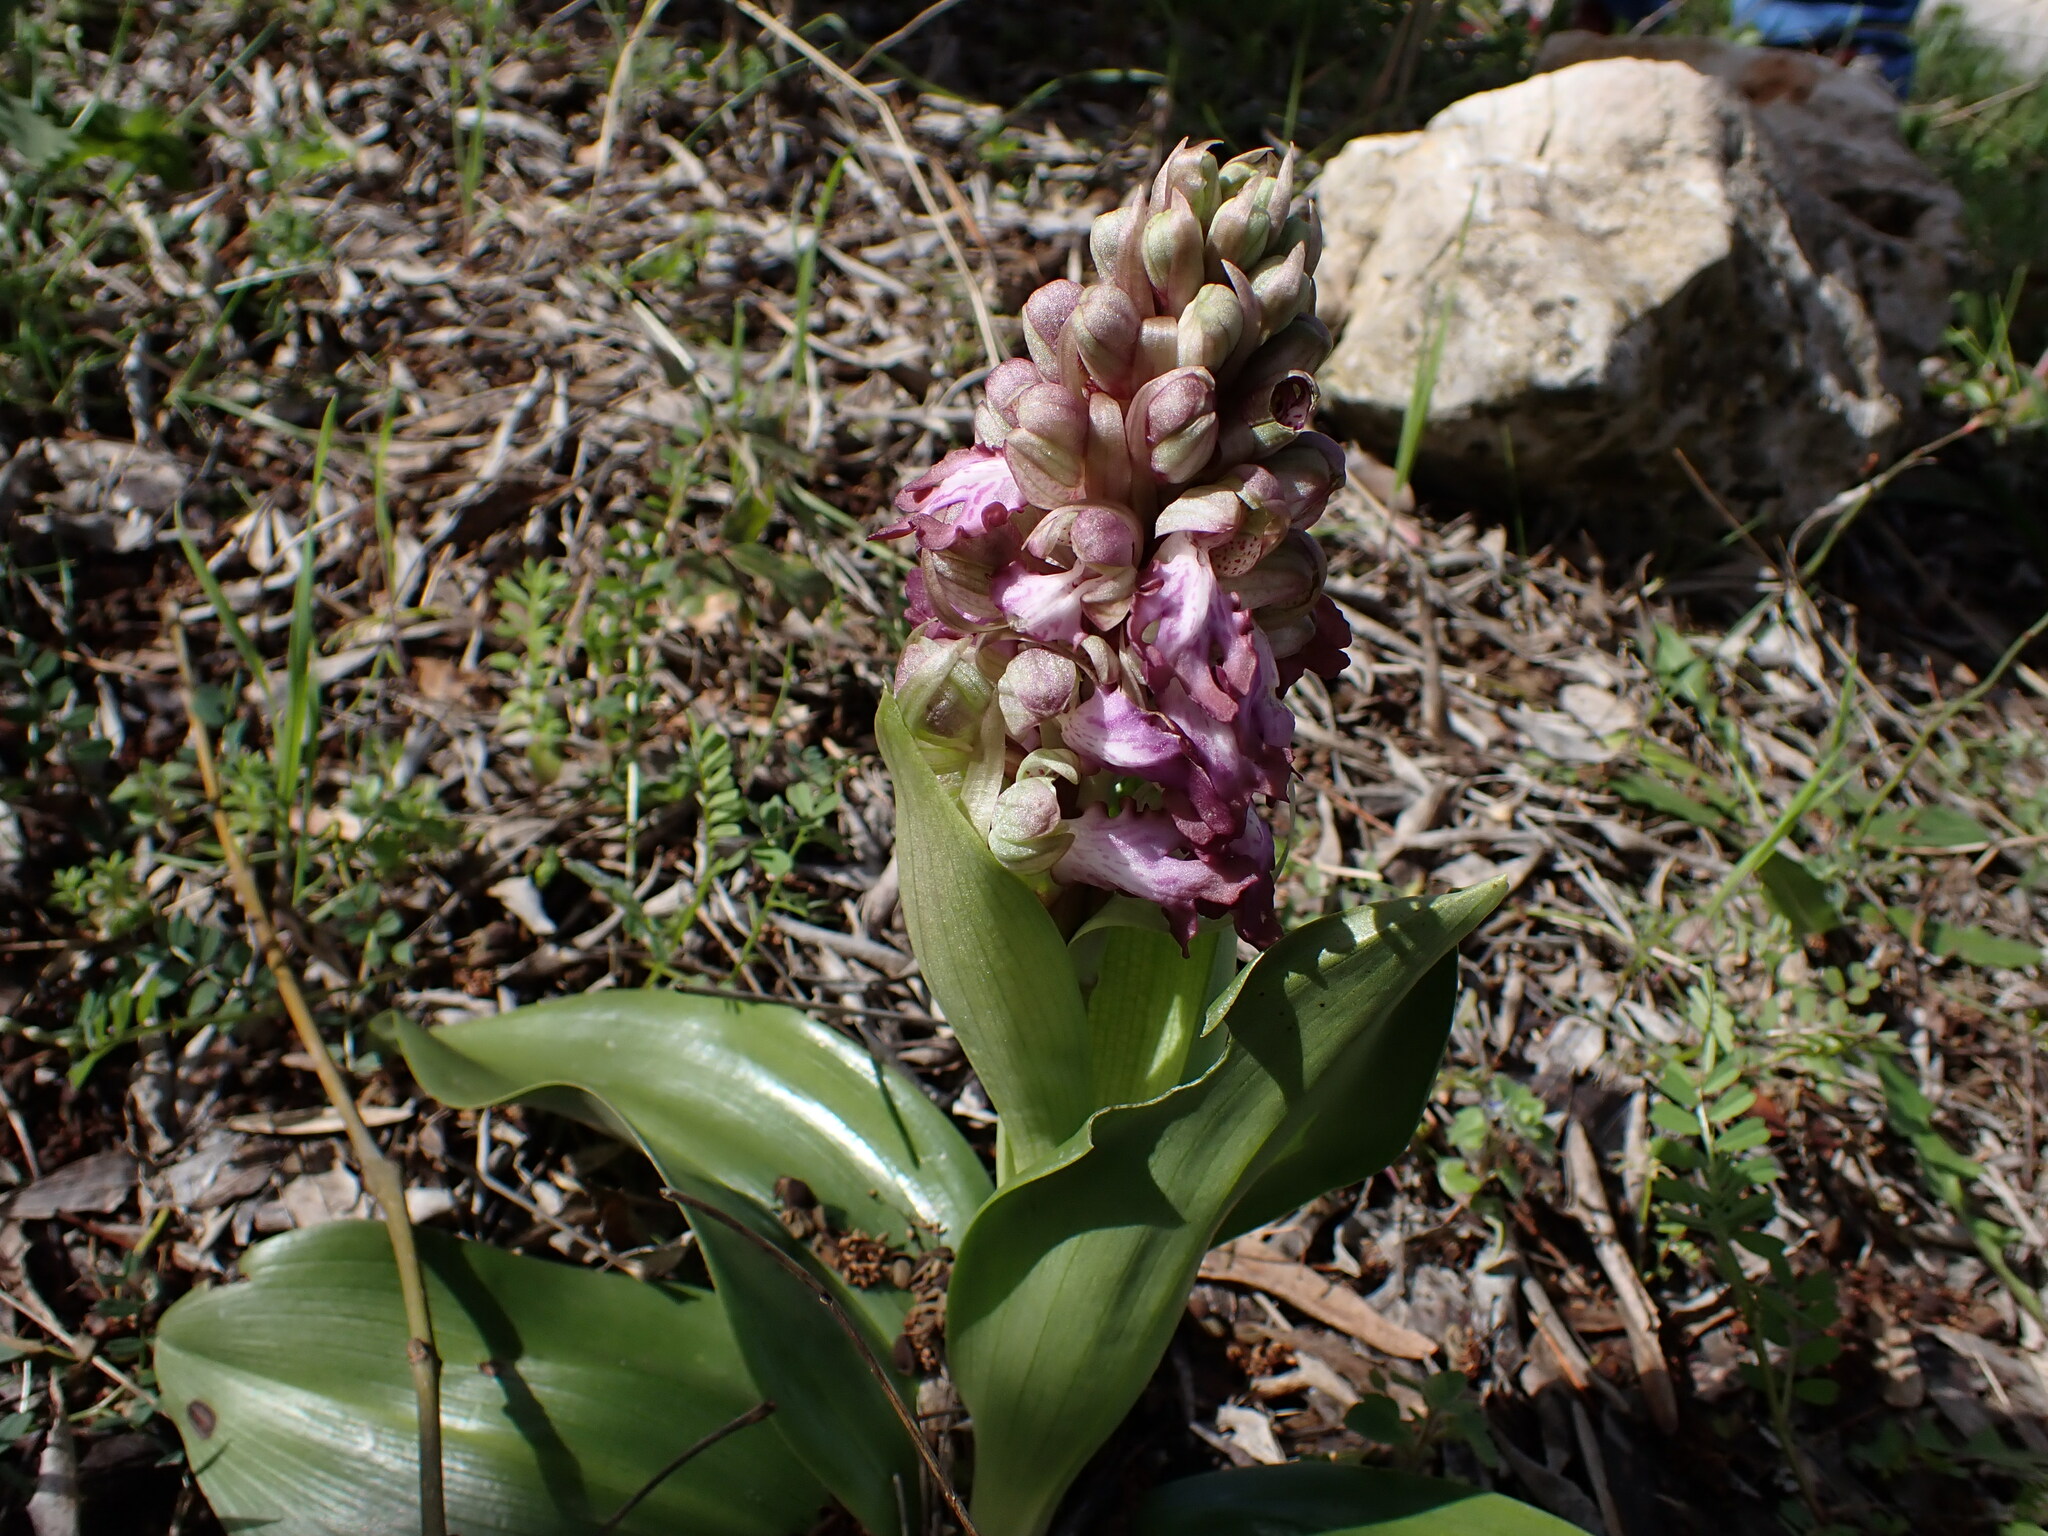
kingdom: Plantae
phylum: Tracheophyta
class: Liliopsida
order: Asparagales
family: Orchidaceae
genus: Himantoglossum
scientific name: Himantoglossum robertianum
